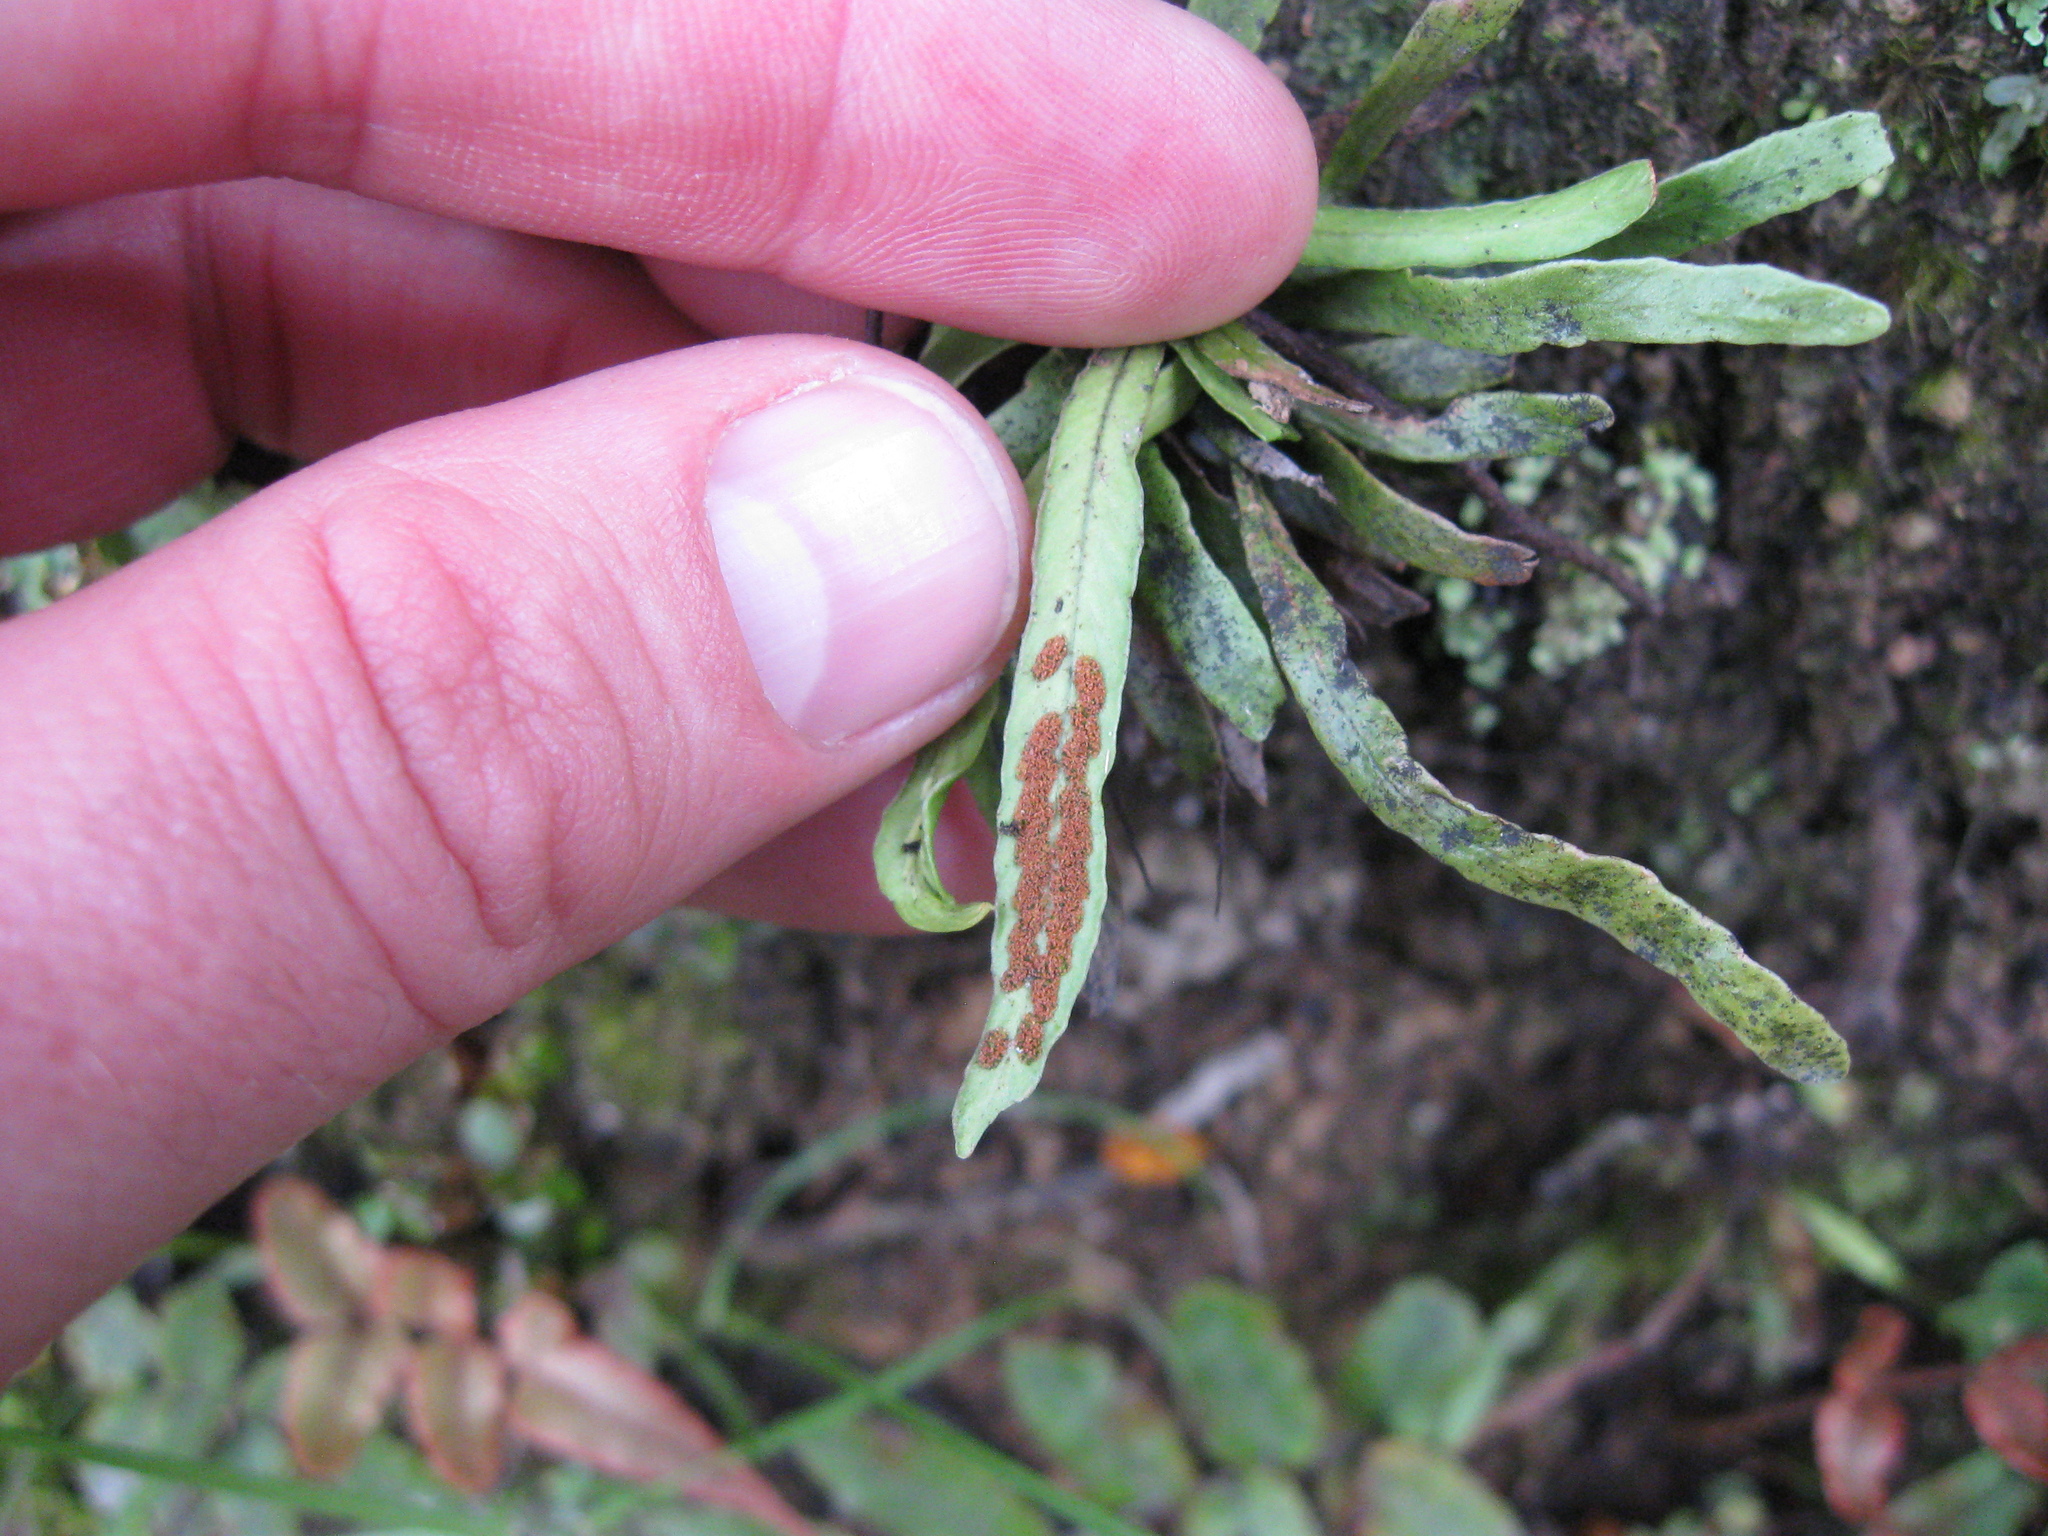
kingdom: Plantae
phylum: Tracheophyta
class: Polypodiopsida
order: Polypodiales
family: Polypodiaceae
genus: Notogrammitis
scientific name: Notogrammitis billardierei
